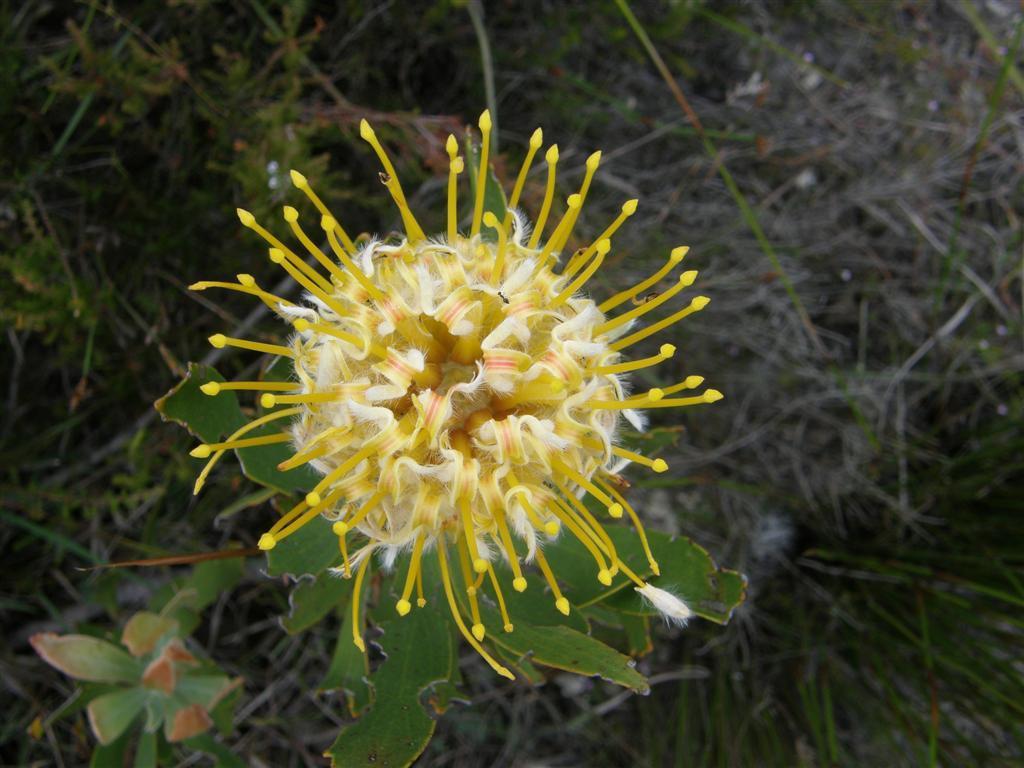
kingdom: Plantae
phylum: Tracheophyta
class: Magnoliopsida
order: Proteales
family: Proteaceae
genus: Leucospermum
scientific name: Leucospermum cuneiforme
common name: Common pincushion
